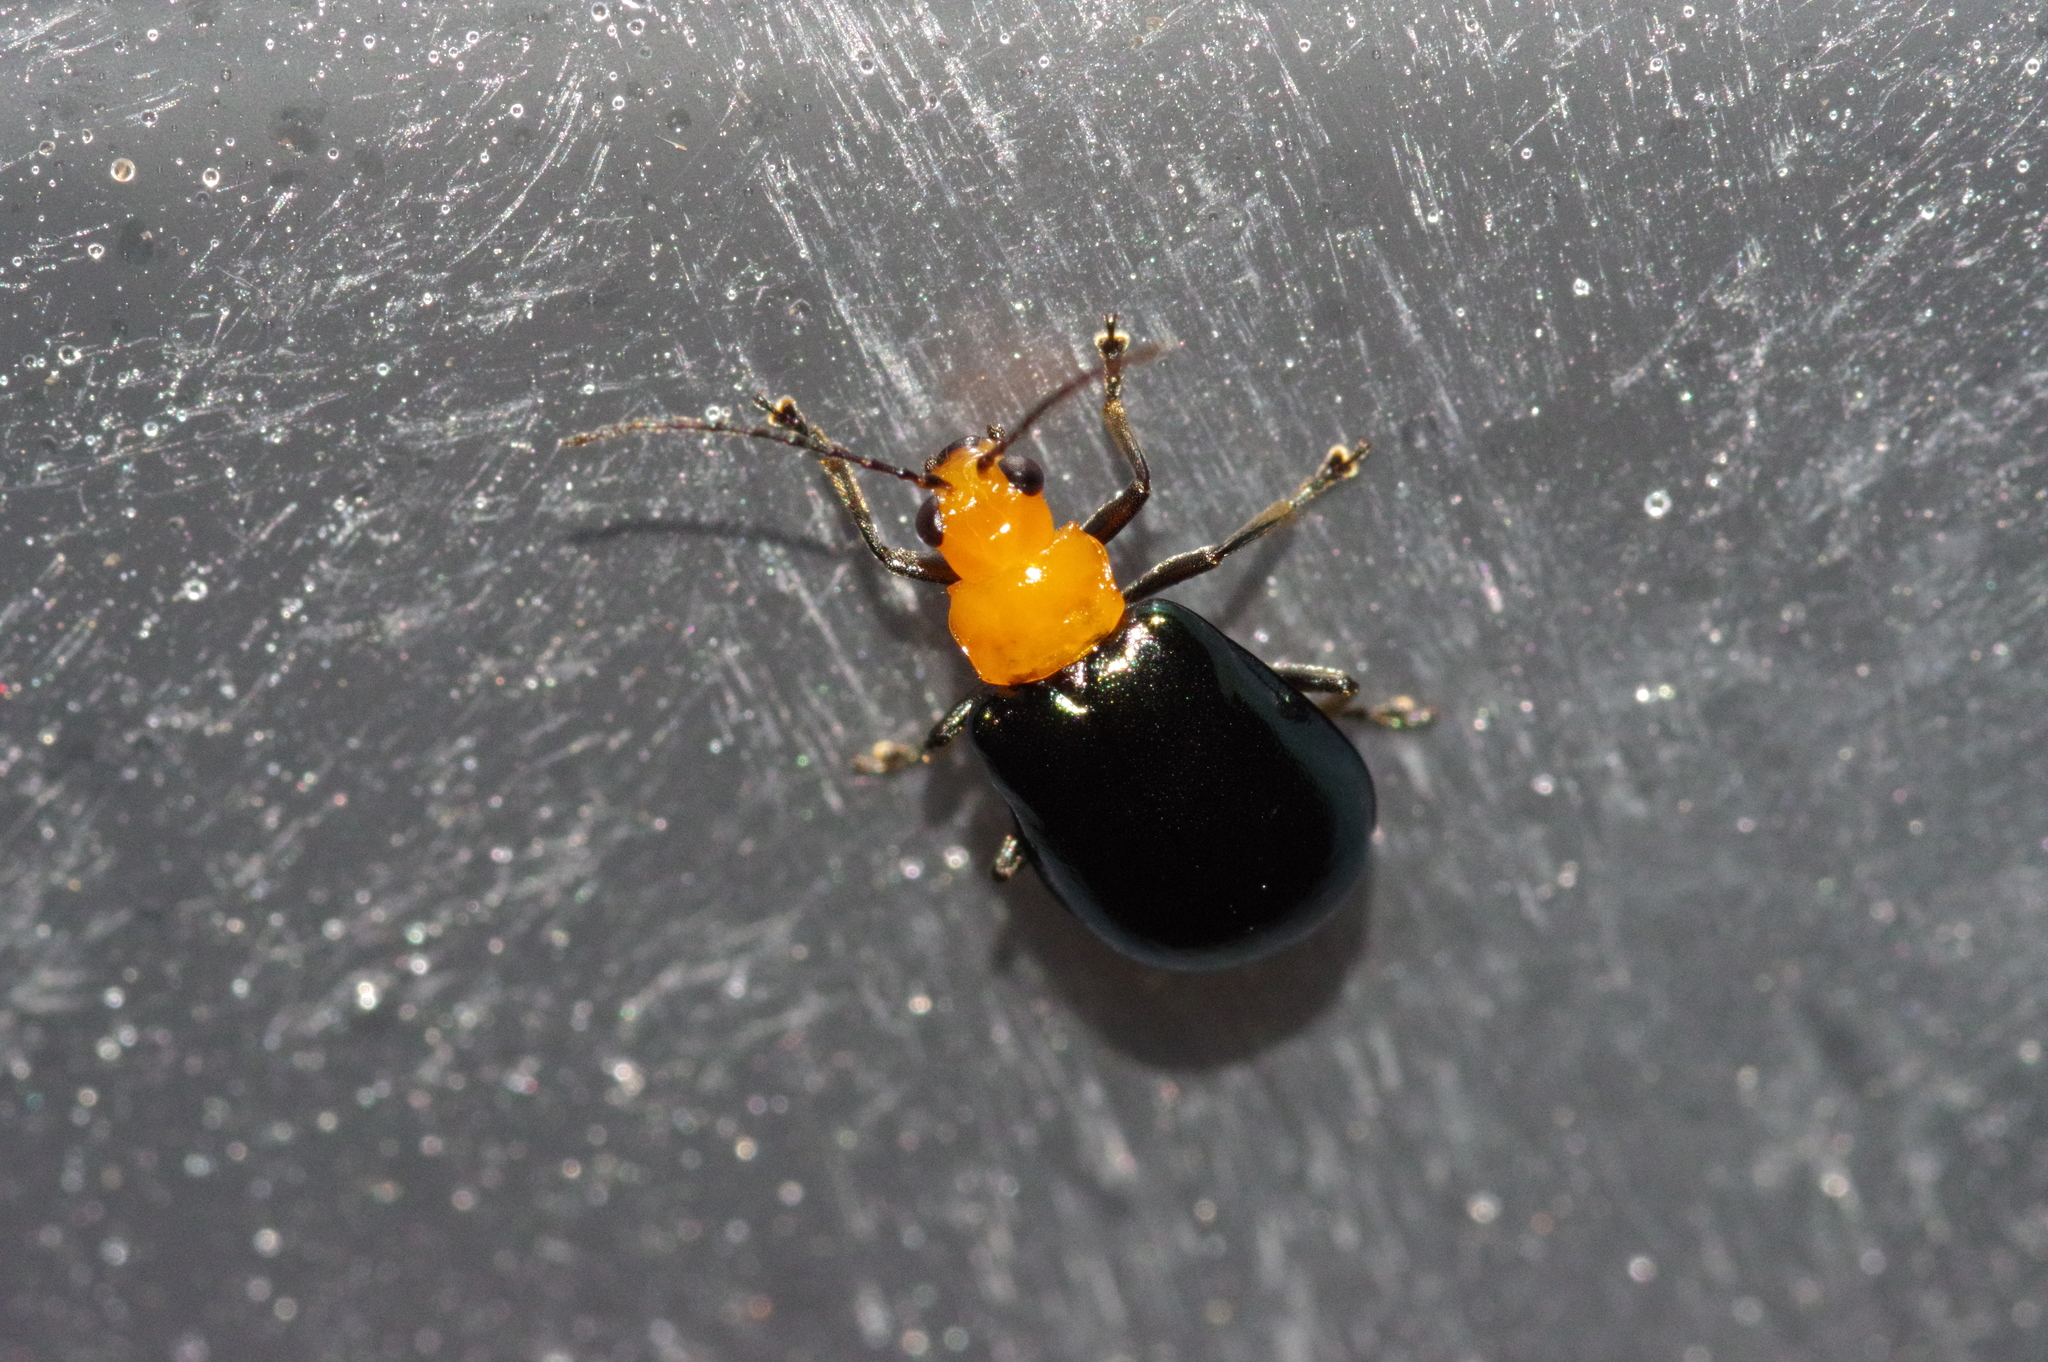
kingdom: Animalia
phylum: Arthropoda
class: Insecta
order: Coleoptera
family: Chrysomelidae
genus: Aulacophora
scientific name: Aulacophora nigripennis
